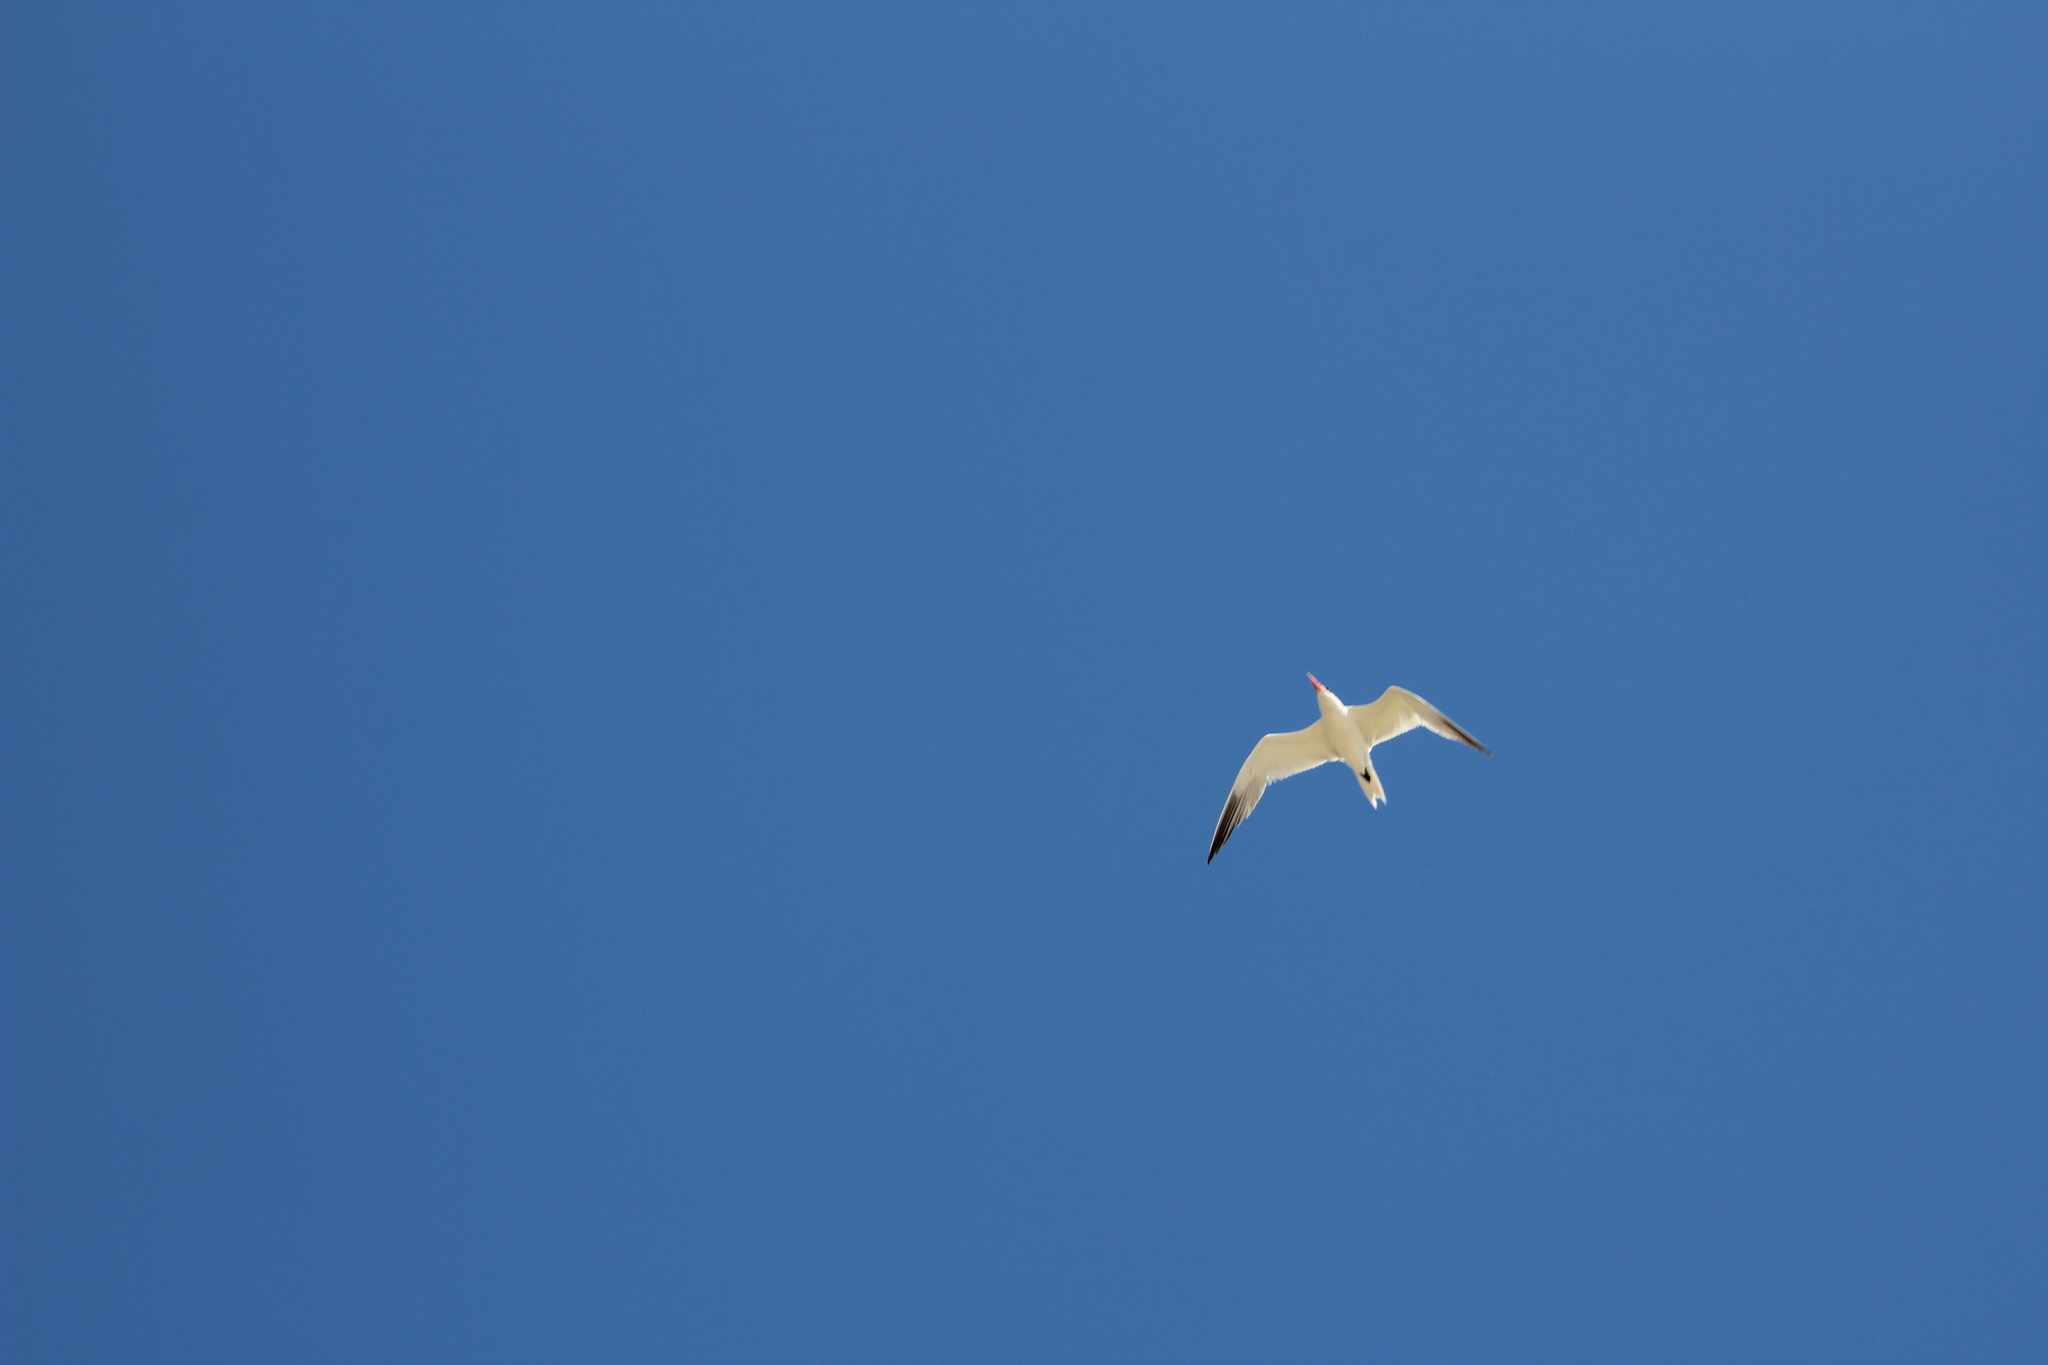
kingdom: Animalia
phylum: Chordata
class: Aves
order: Charadriiformes
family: Laridae
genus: Hydroprogne
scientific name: Hydroprogne caspia
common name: Caspian tern
